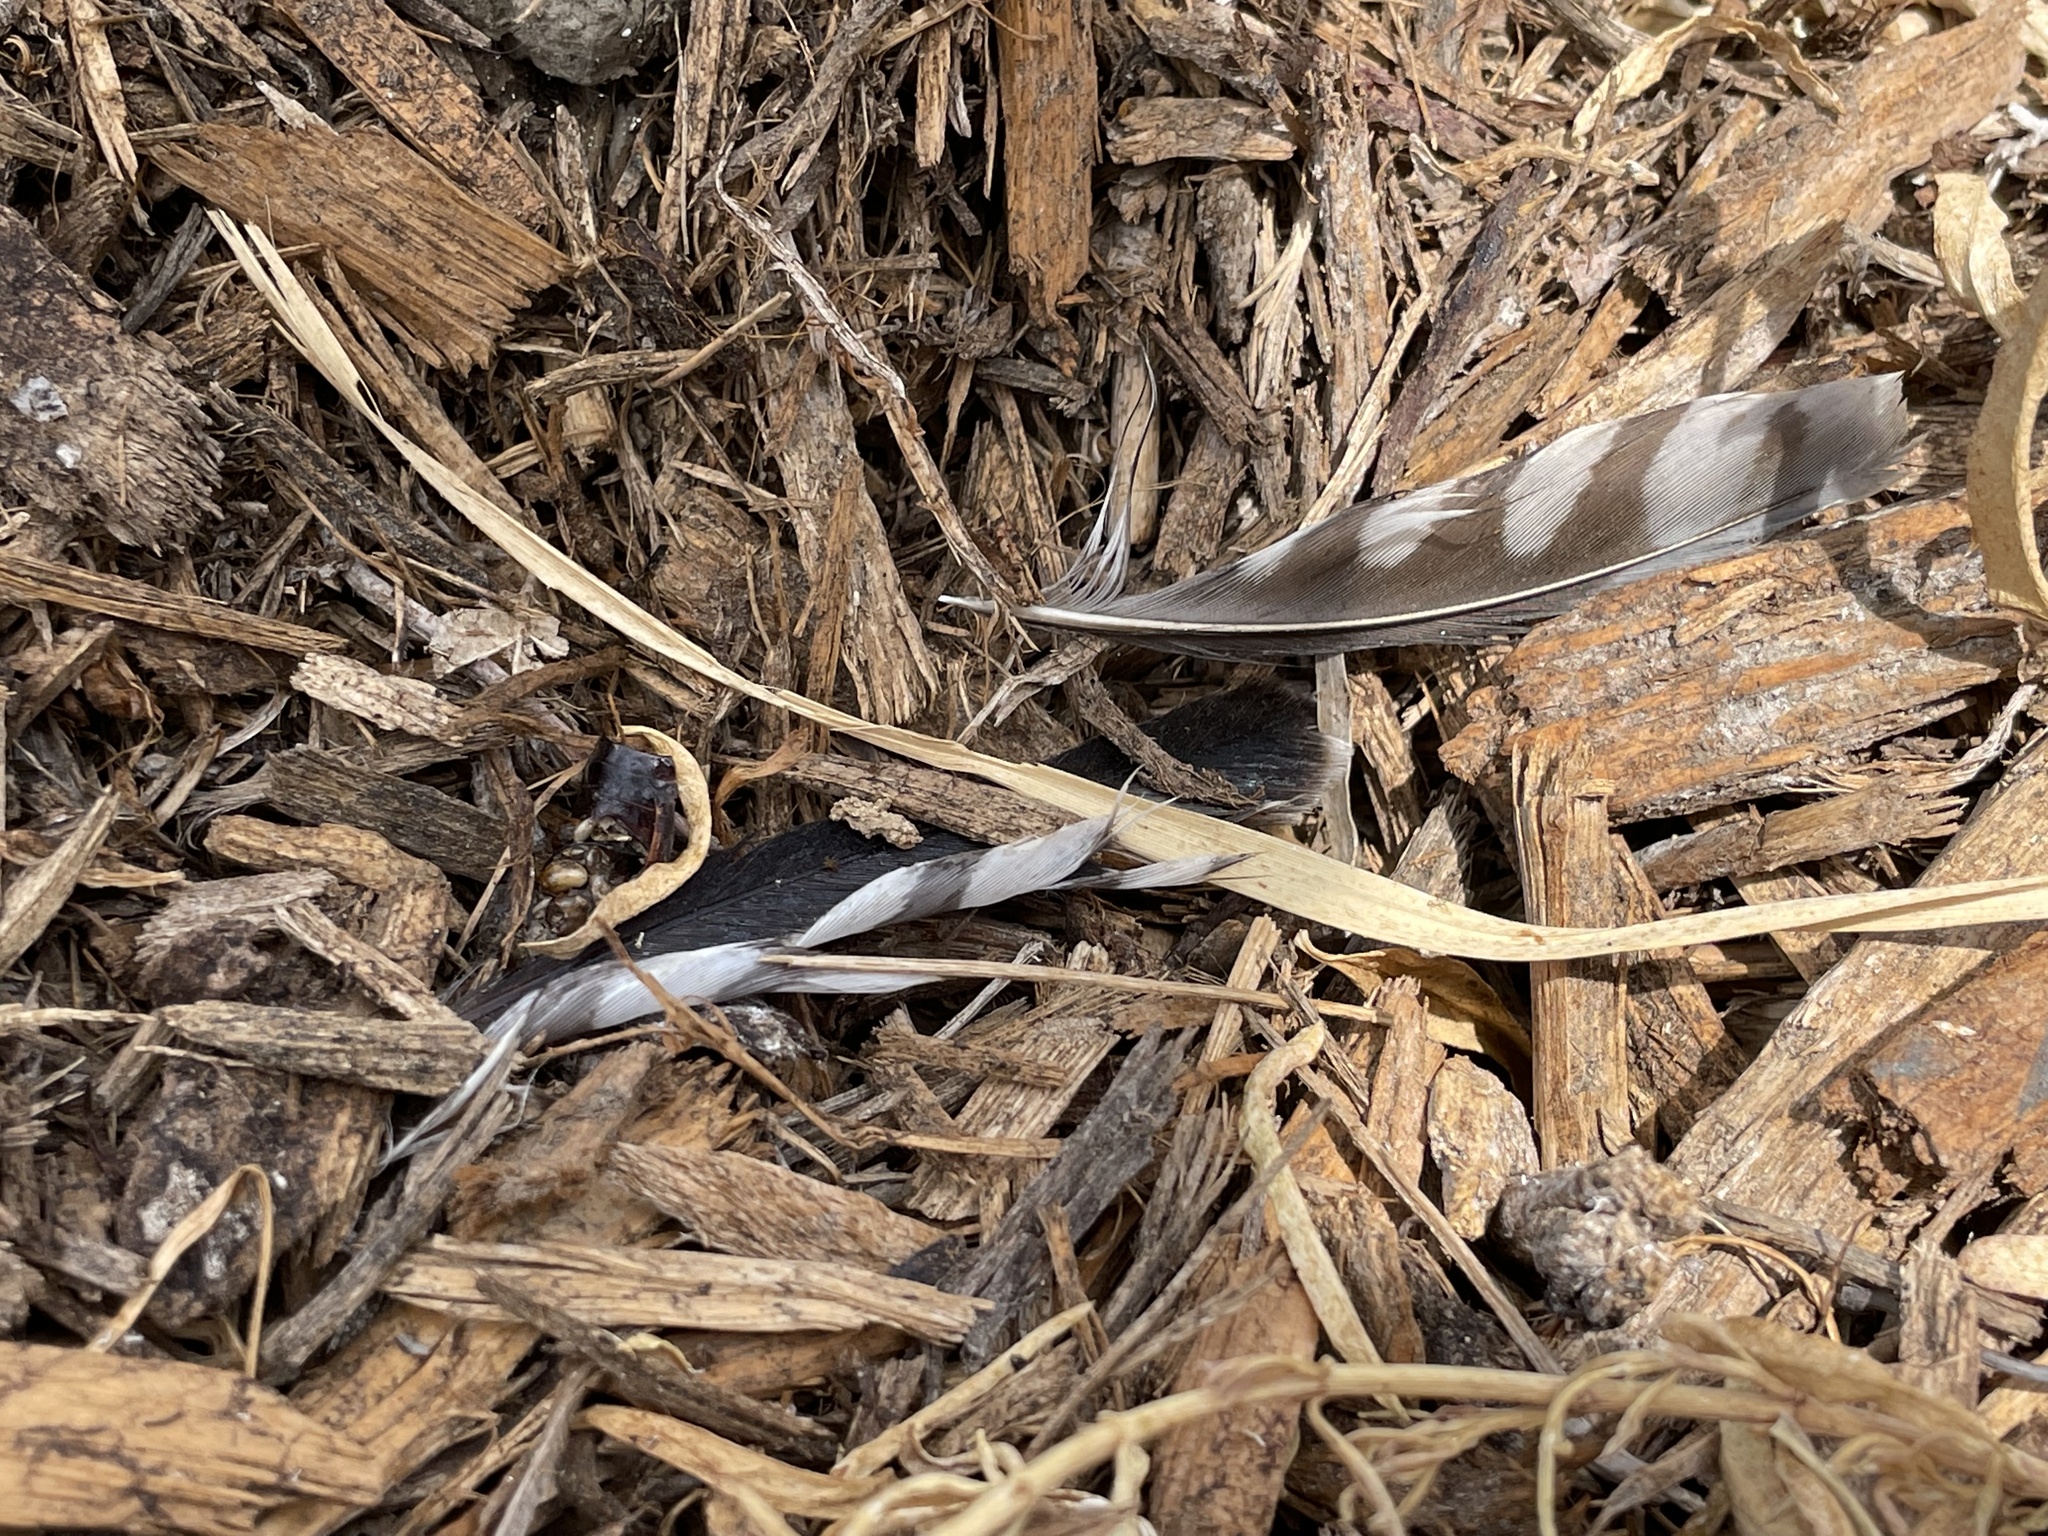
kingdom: Animalia
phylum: Chordata
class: Aves
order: Falconiformes
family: Falconidae
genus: Falco
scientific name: Falco sparverius
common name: American kestrel
